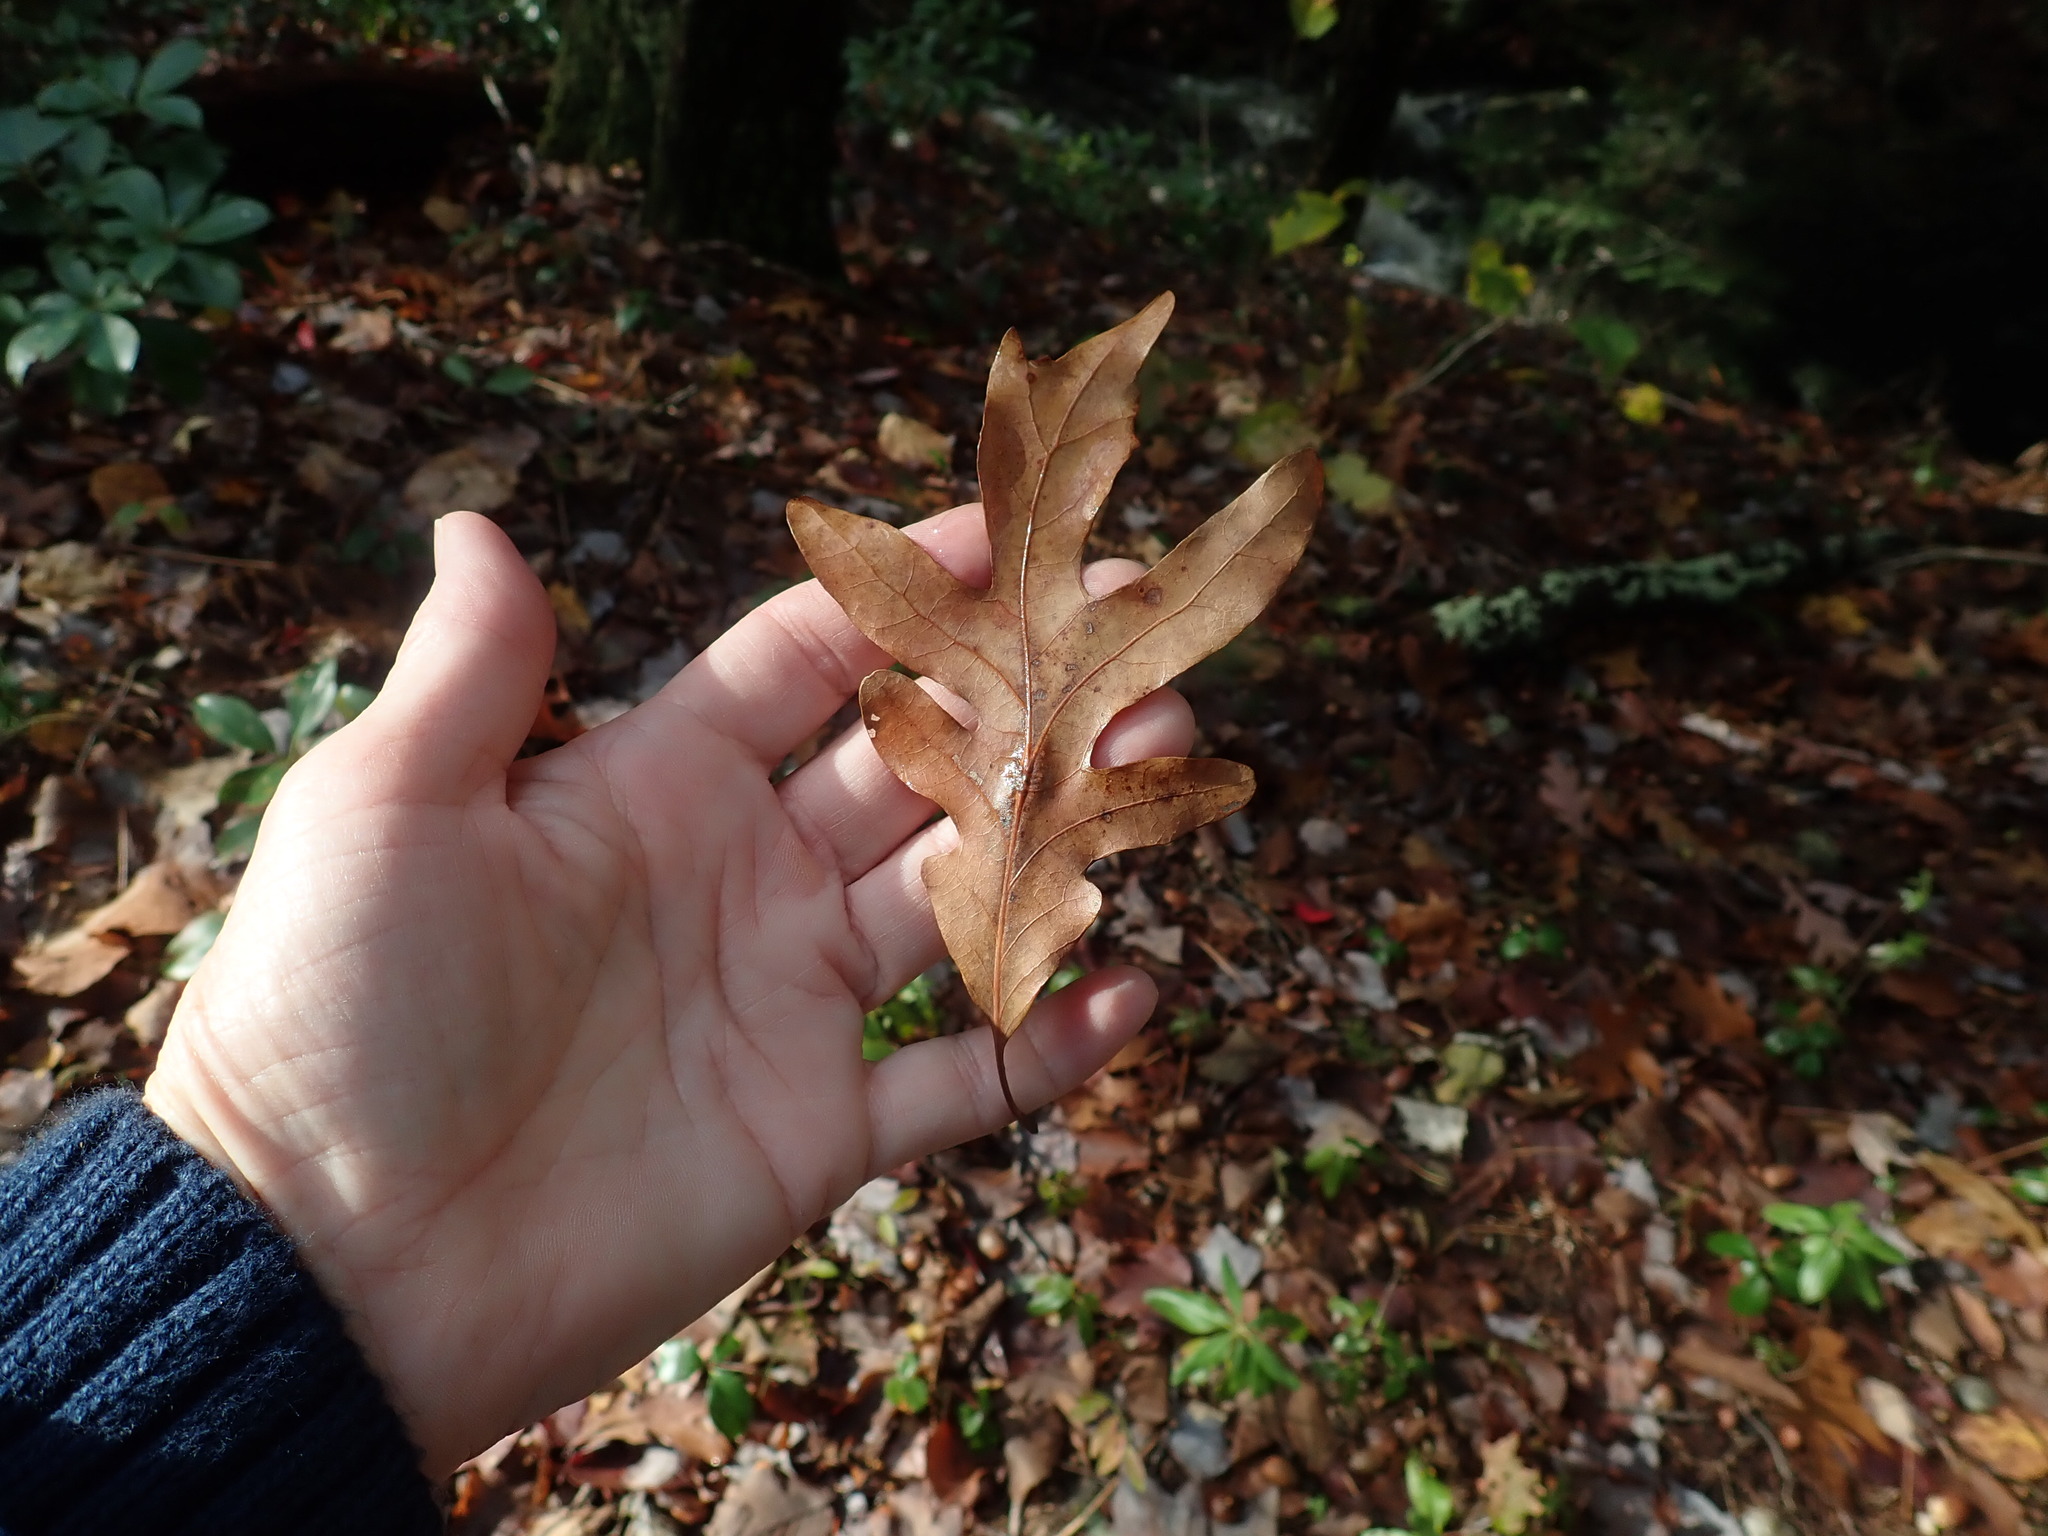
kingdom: Plantae
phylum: Tracheophyta
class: Magnoliopsida
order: Fagales
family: Fagaceae
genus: Quercus
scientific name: Quercus alba
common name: White oak
